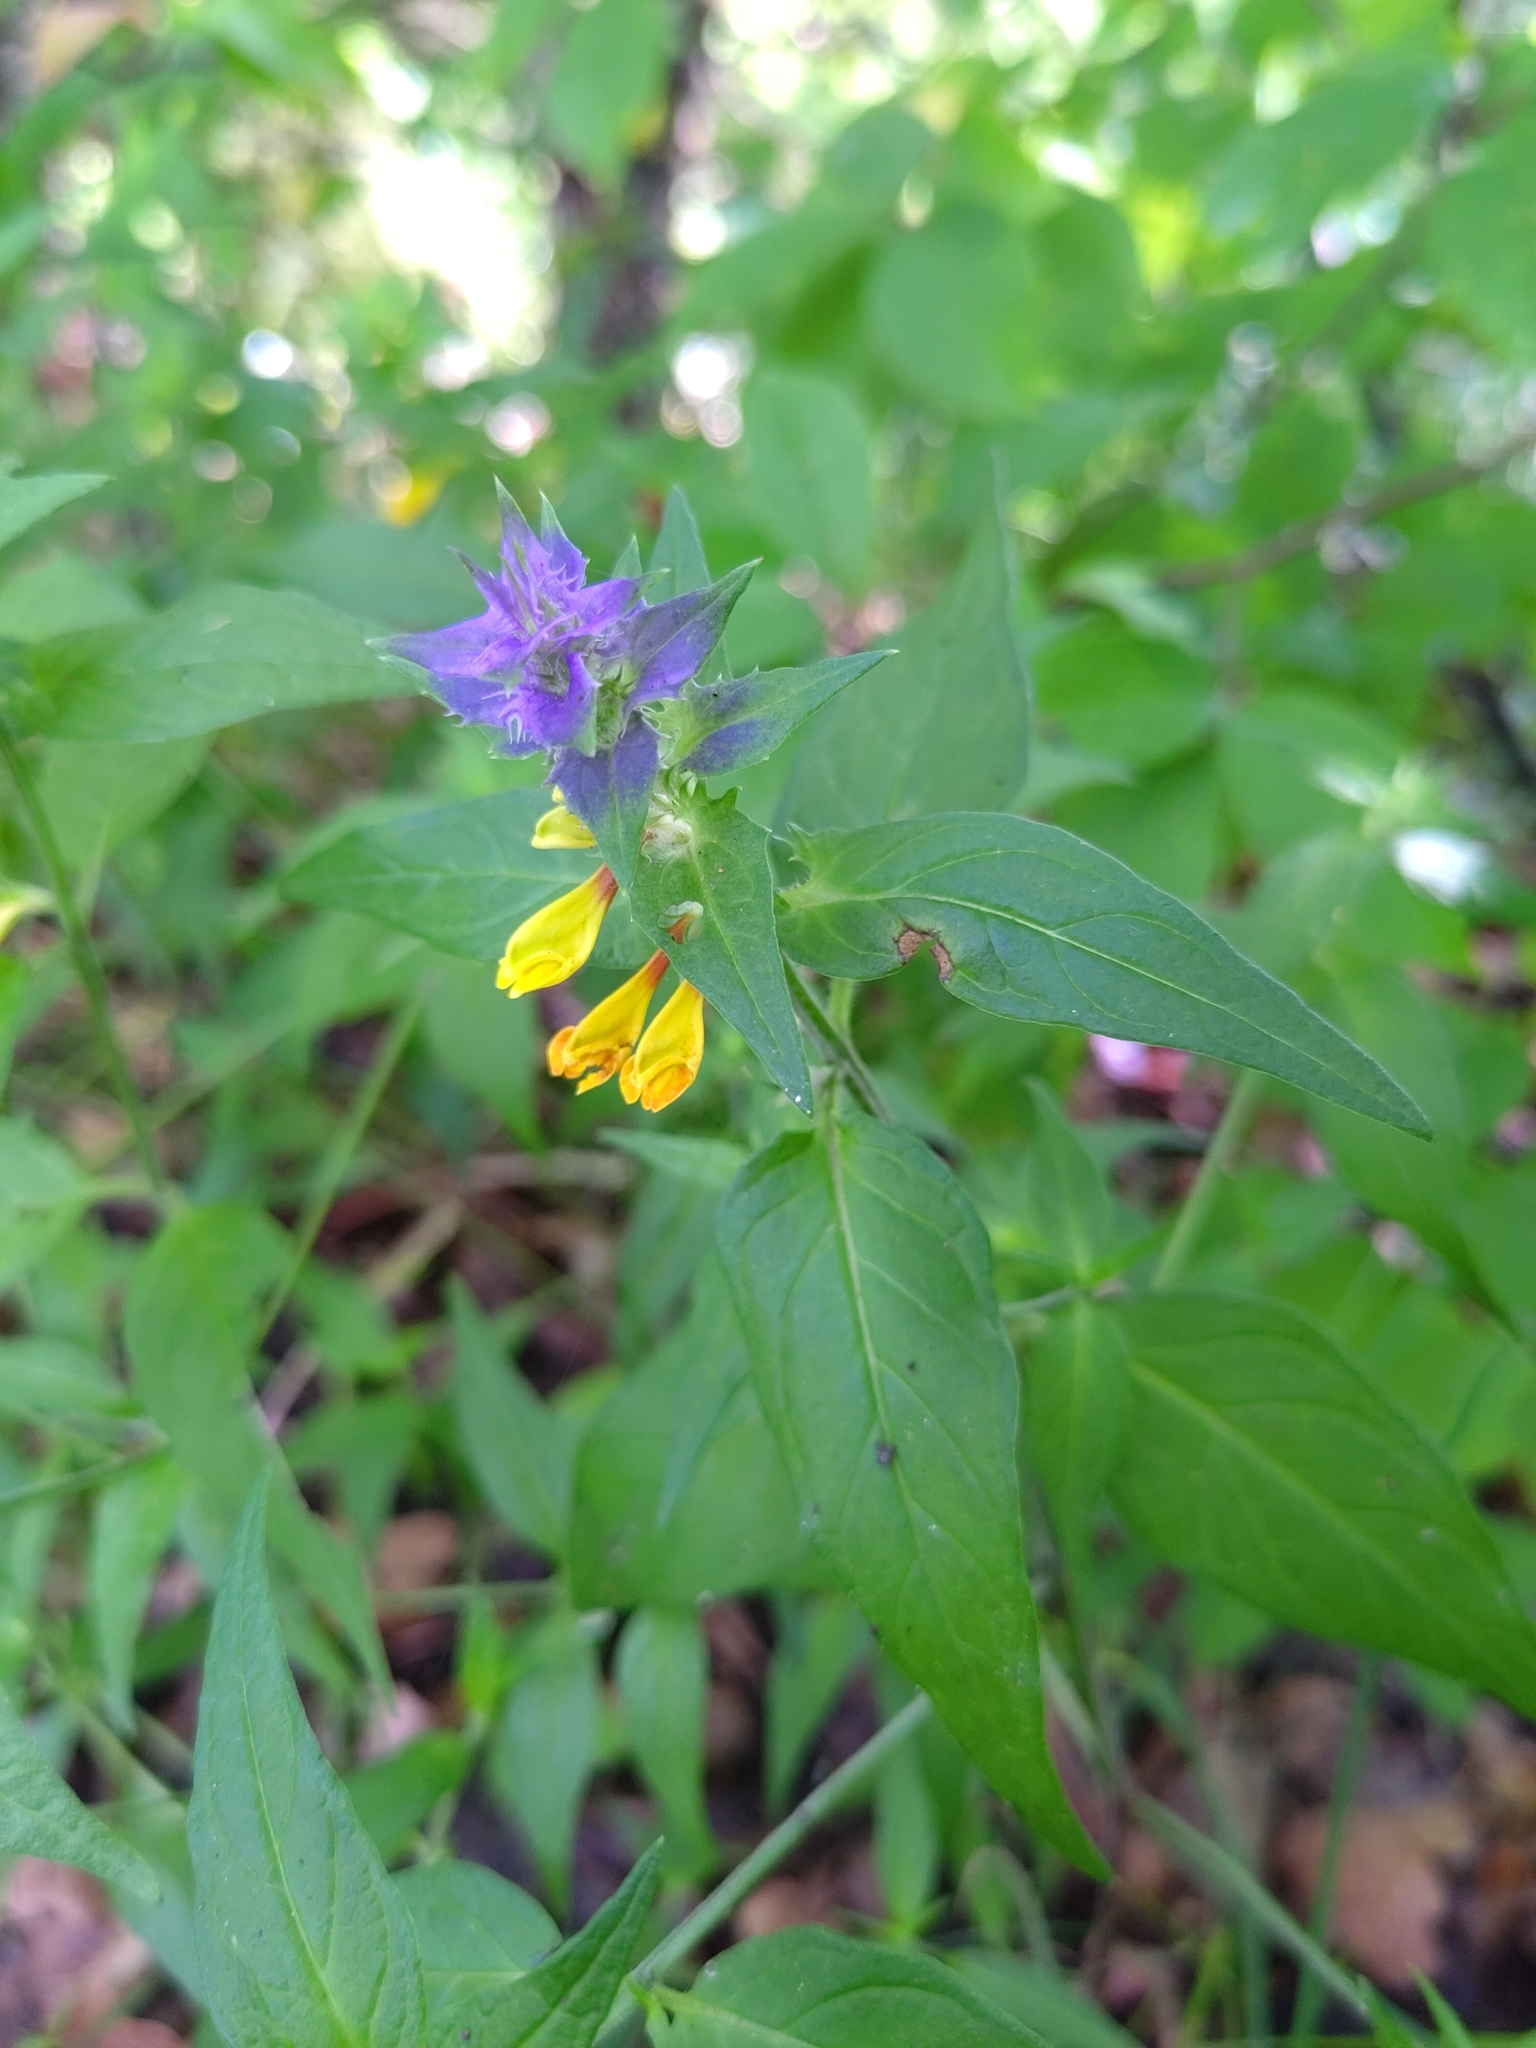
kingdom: Plantae
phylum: Tracheophyta
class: Magnoliopsida
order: Lamiales
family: Orobanchaceae
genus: Melampyrum
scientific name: Melampyrum nemorosum
